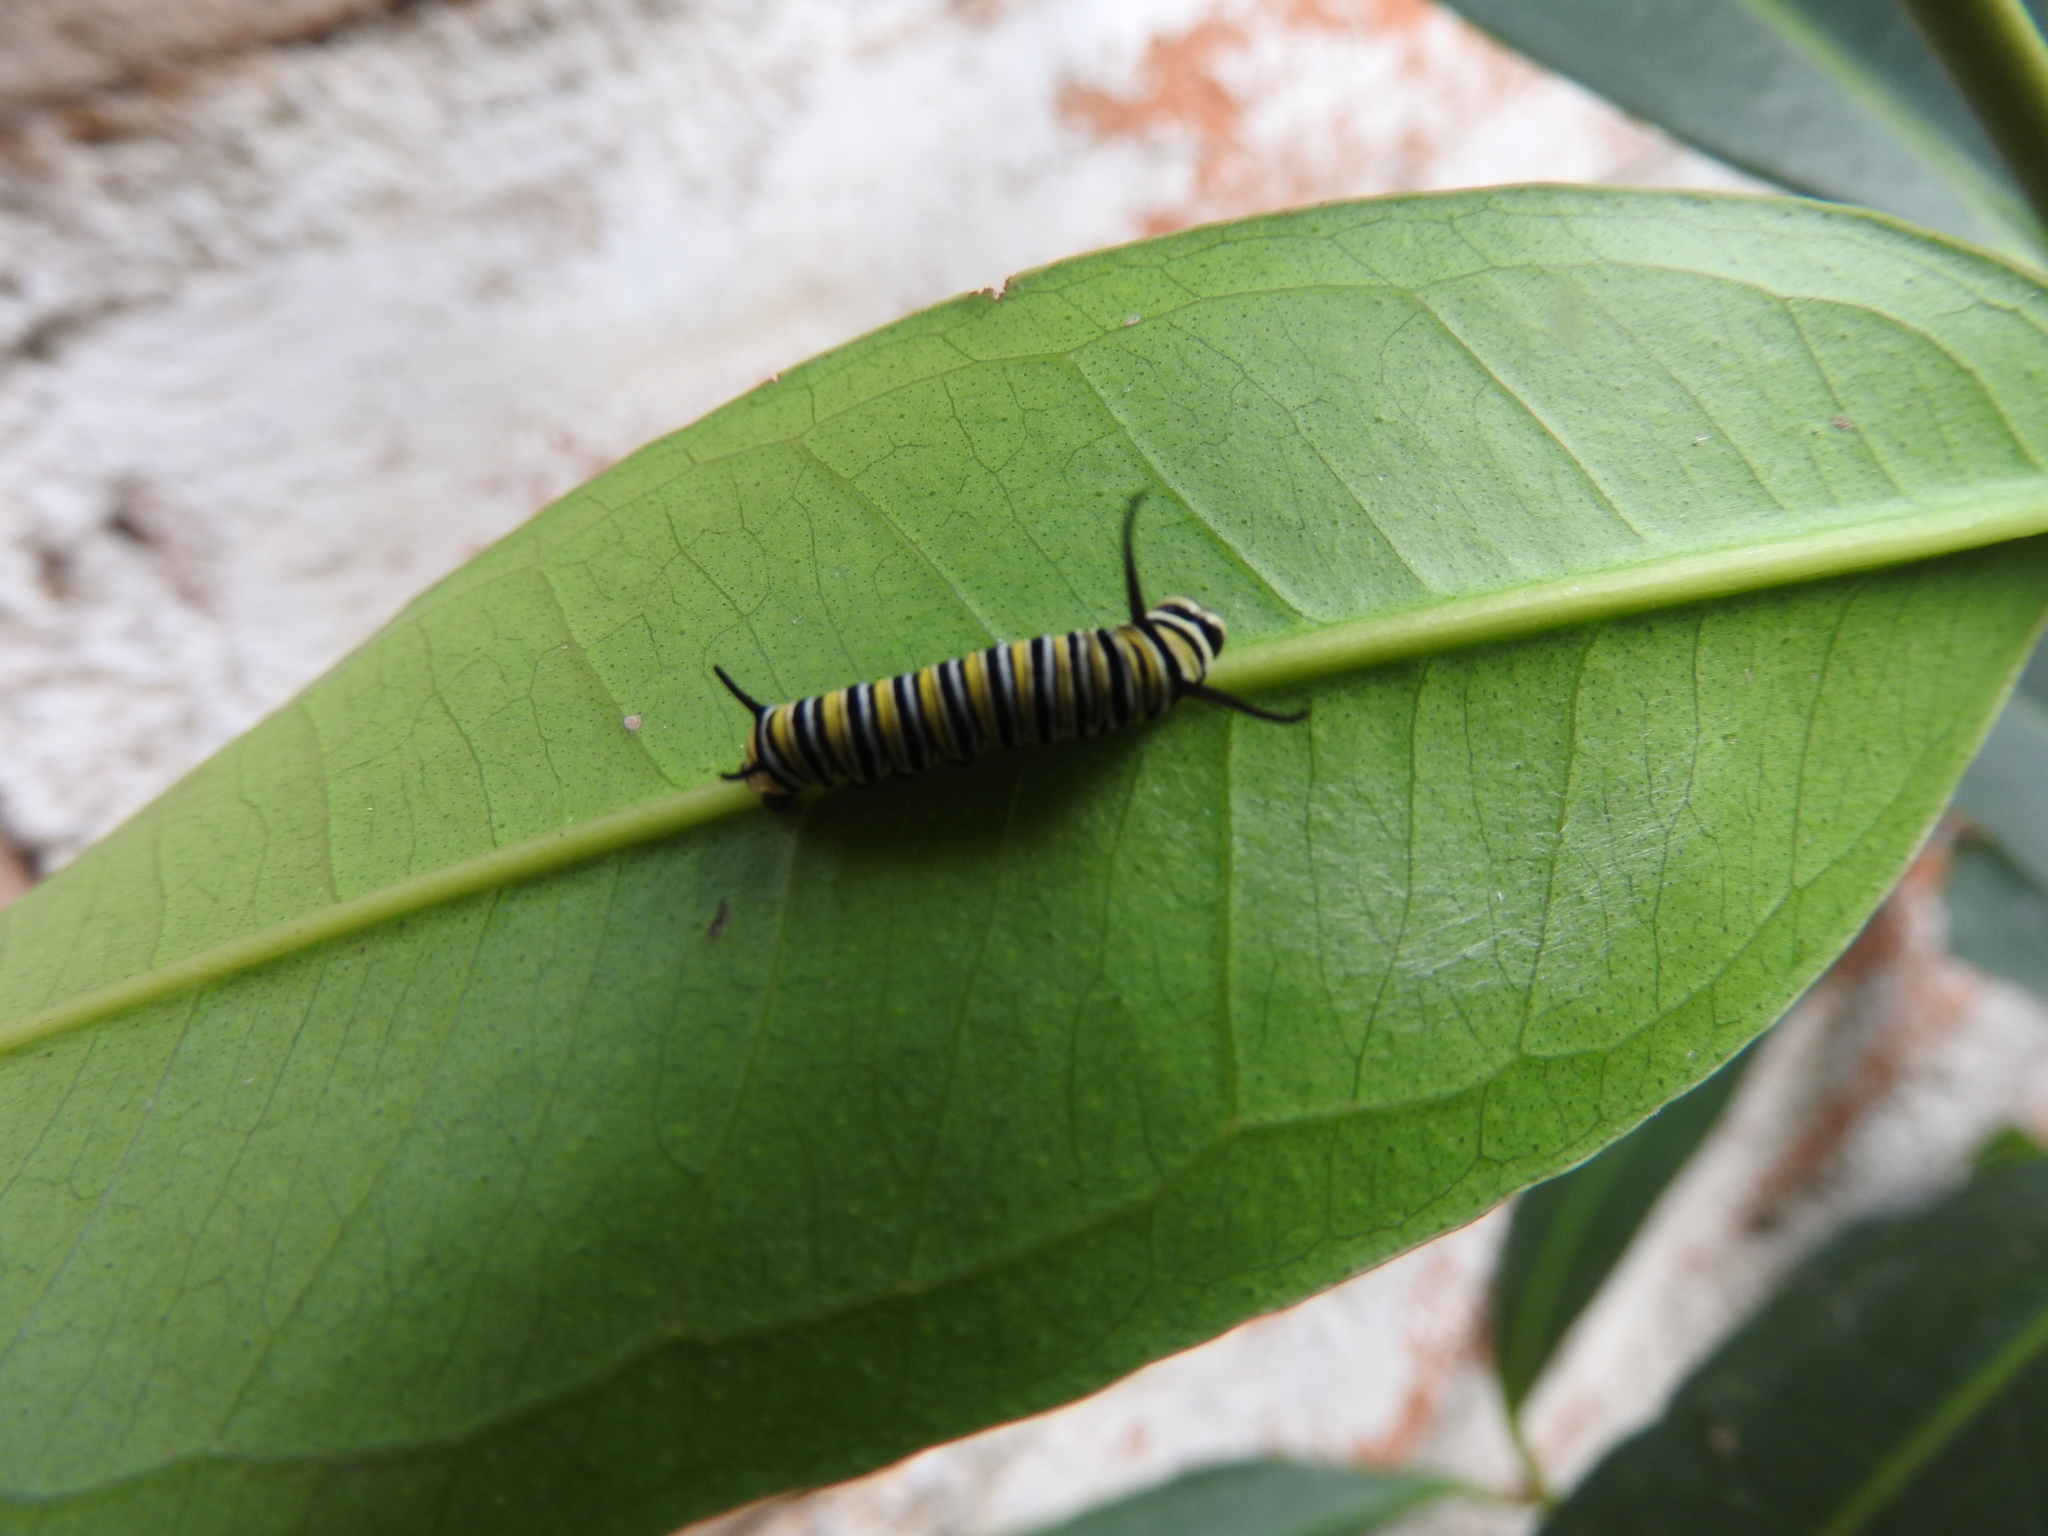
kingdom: Animalia
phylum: Arthropoda
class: Insecta
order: Lepidoptera
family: Nymphalidae
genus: Danaus
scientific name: Danaus plexippus
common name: Monarch
